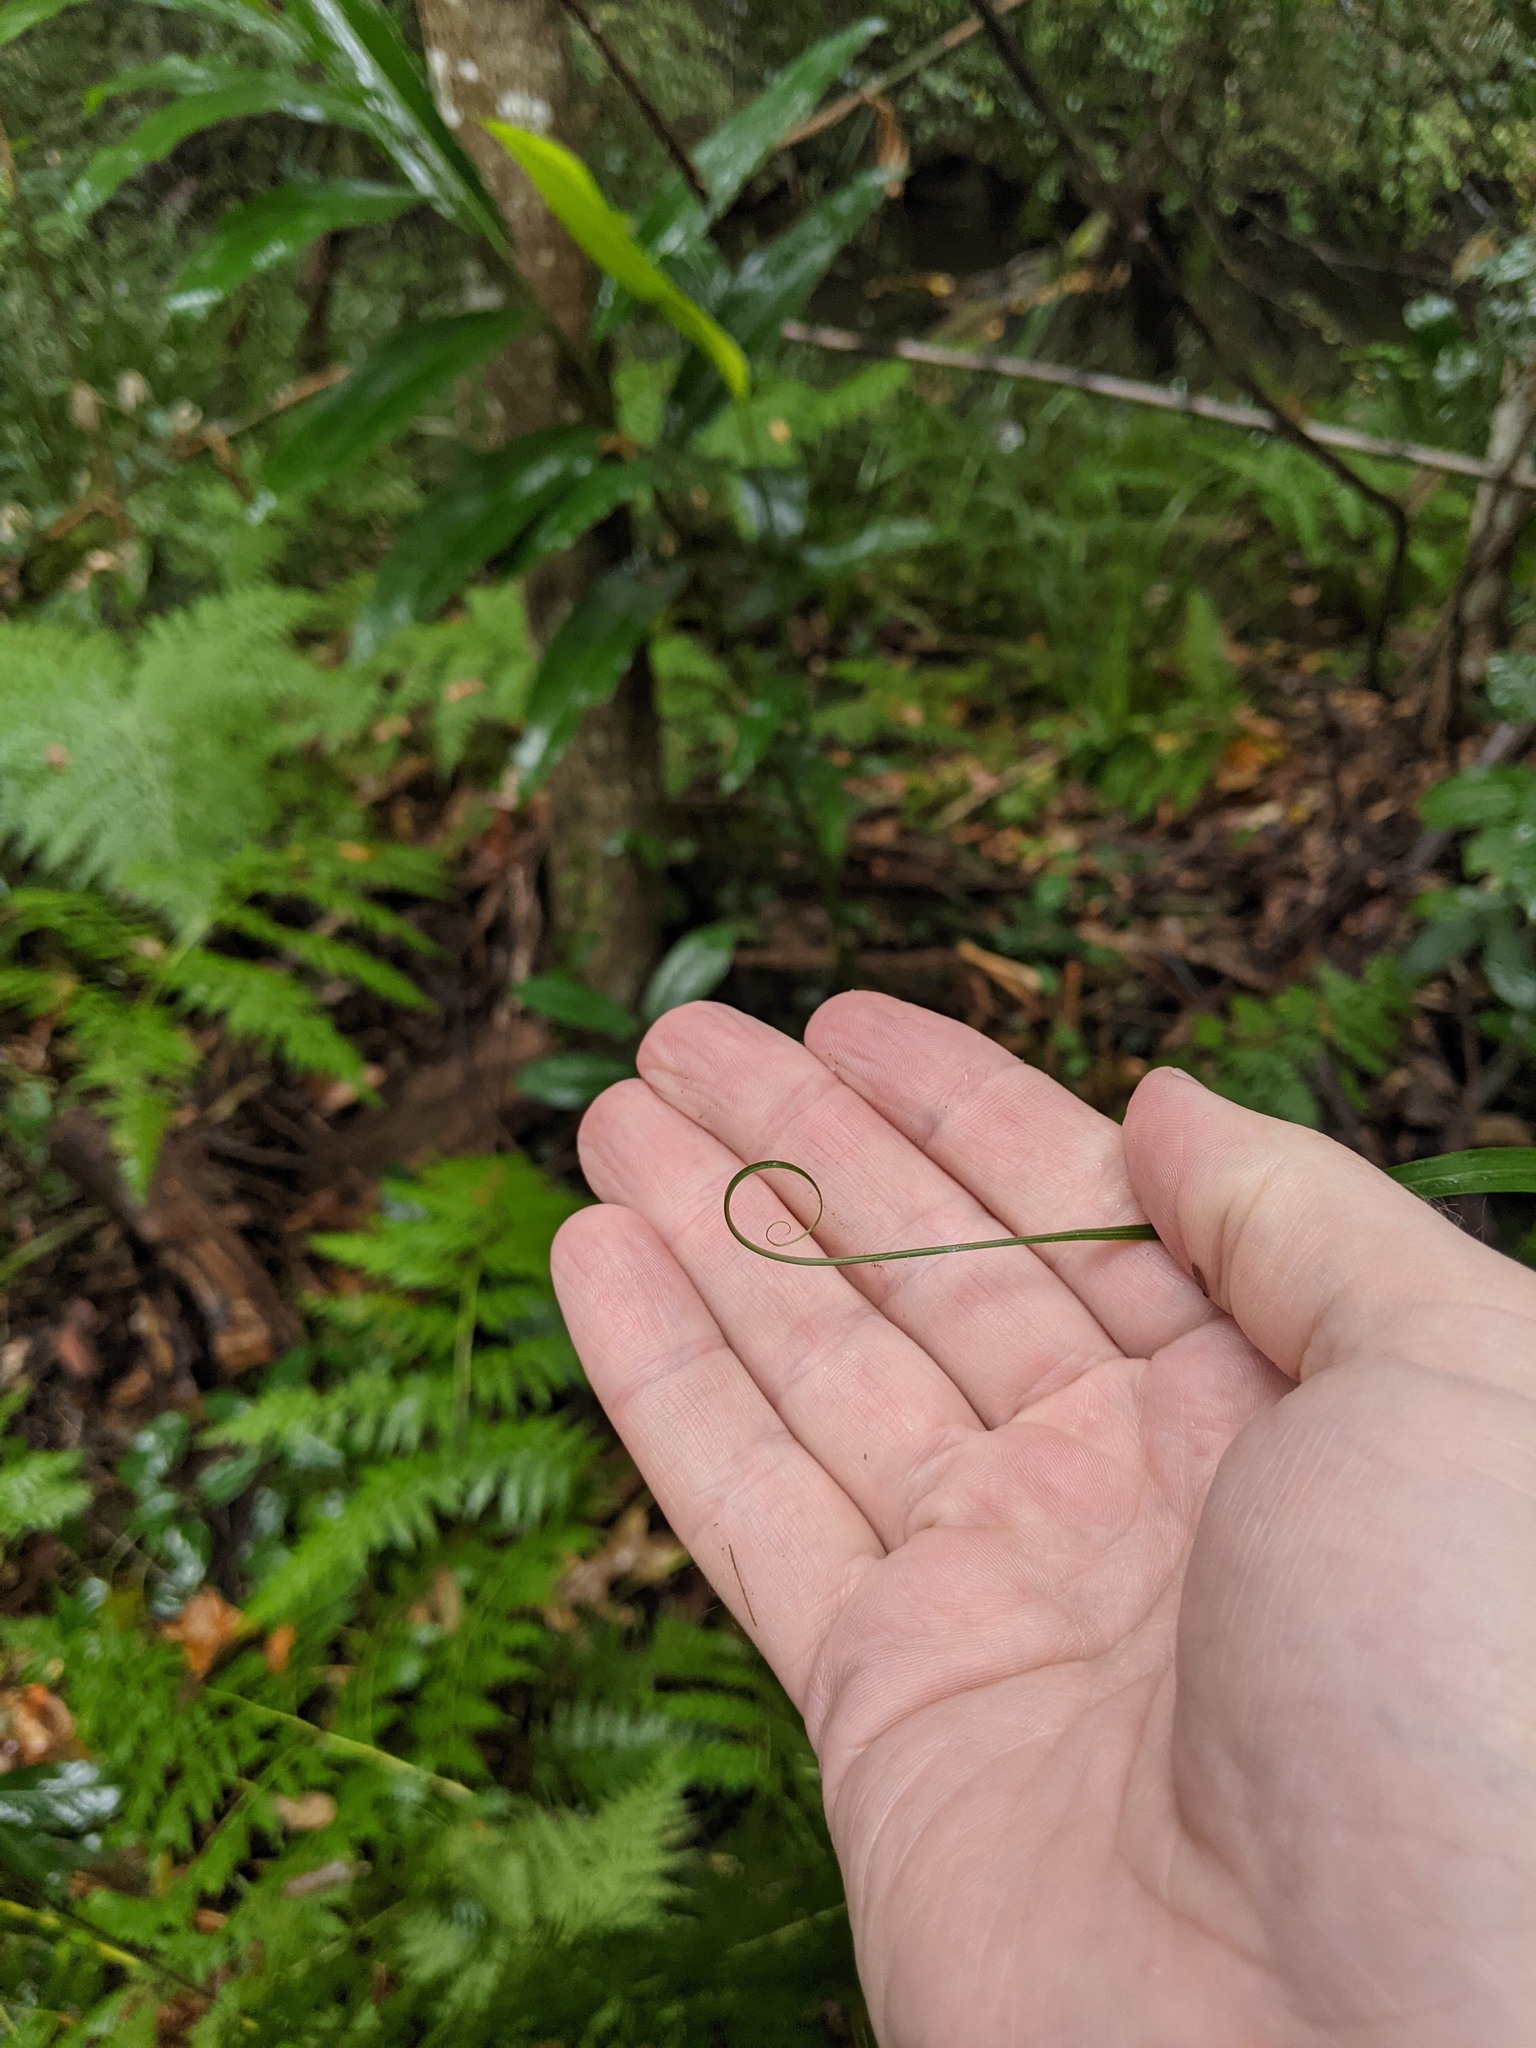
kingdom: Plantae
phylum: Tracheophyta
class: Liliopsida
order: Poales
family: Flagellariaceae
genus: Flagellaria
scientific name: Flagellaria indica
